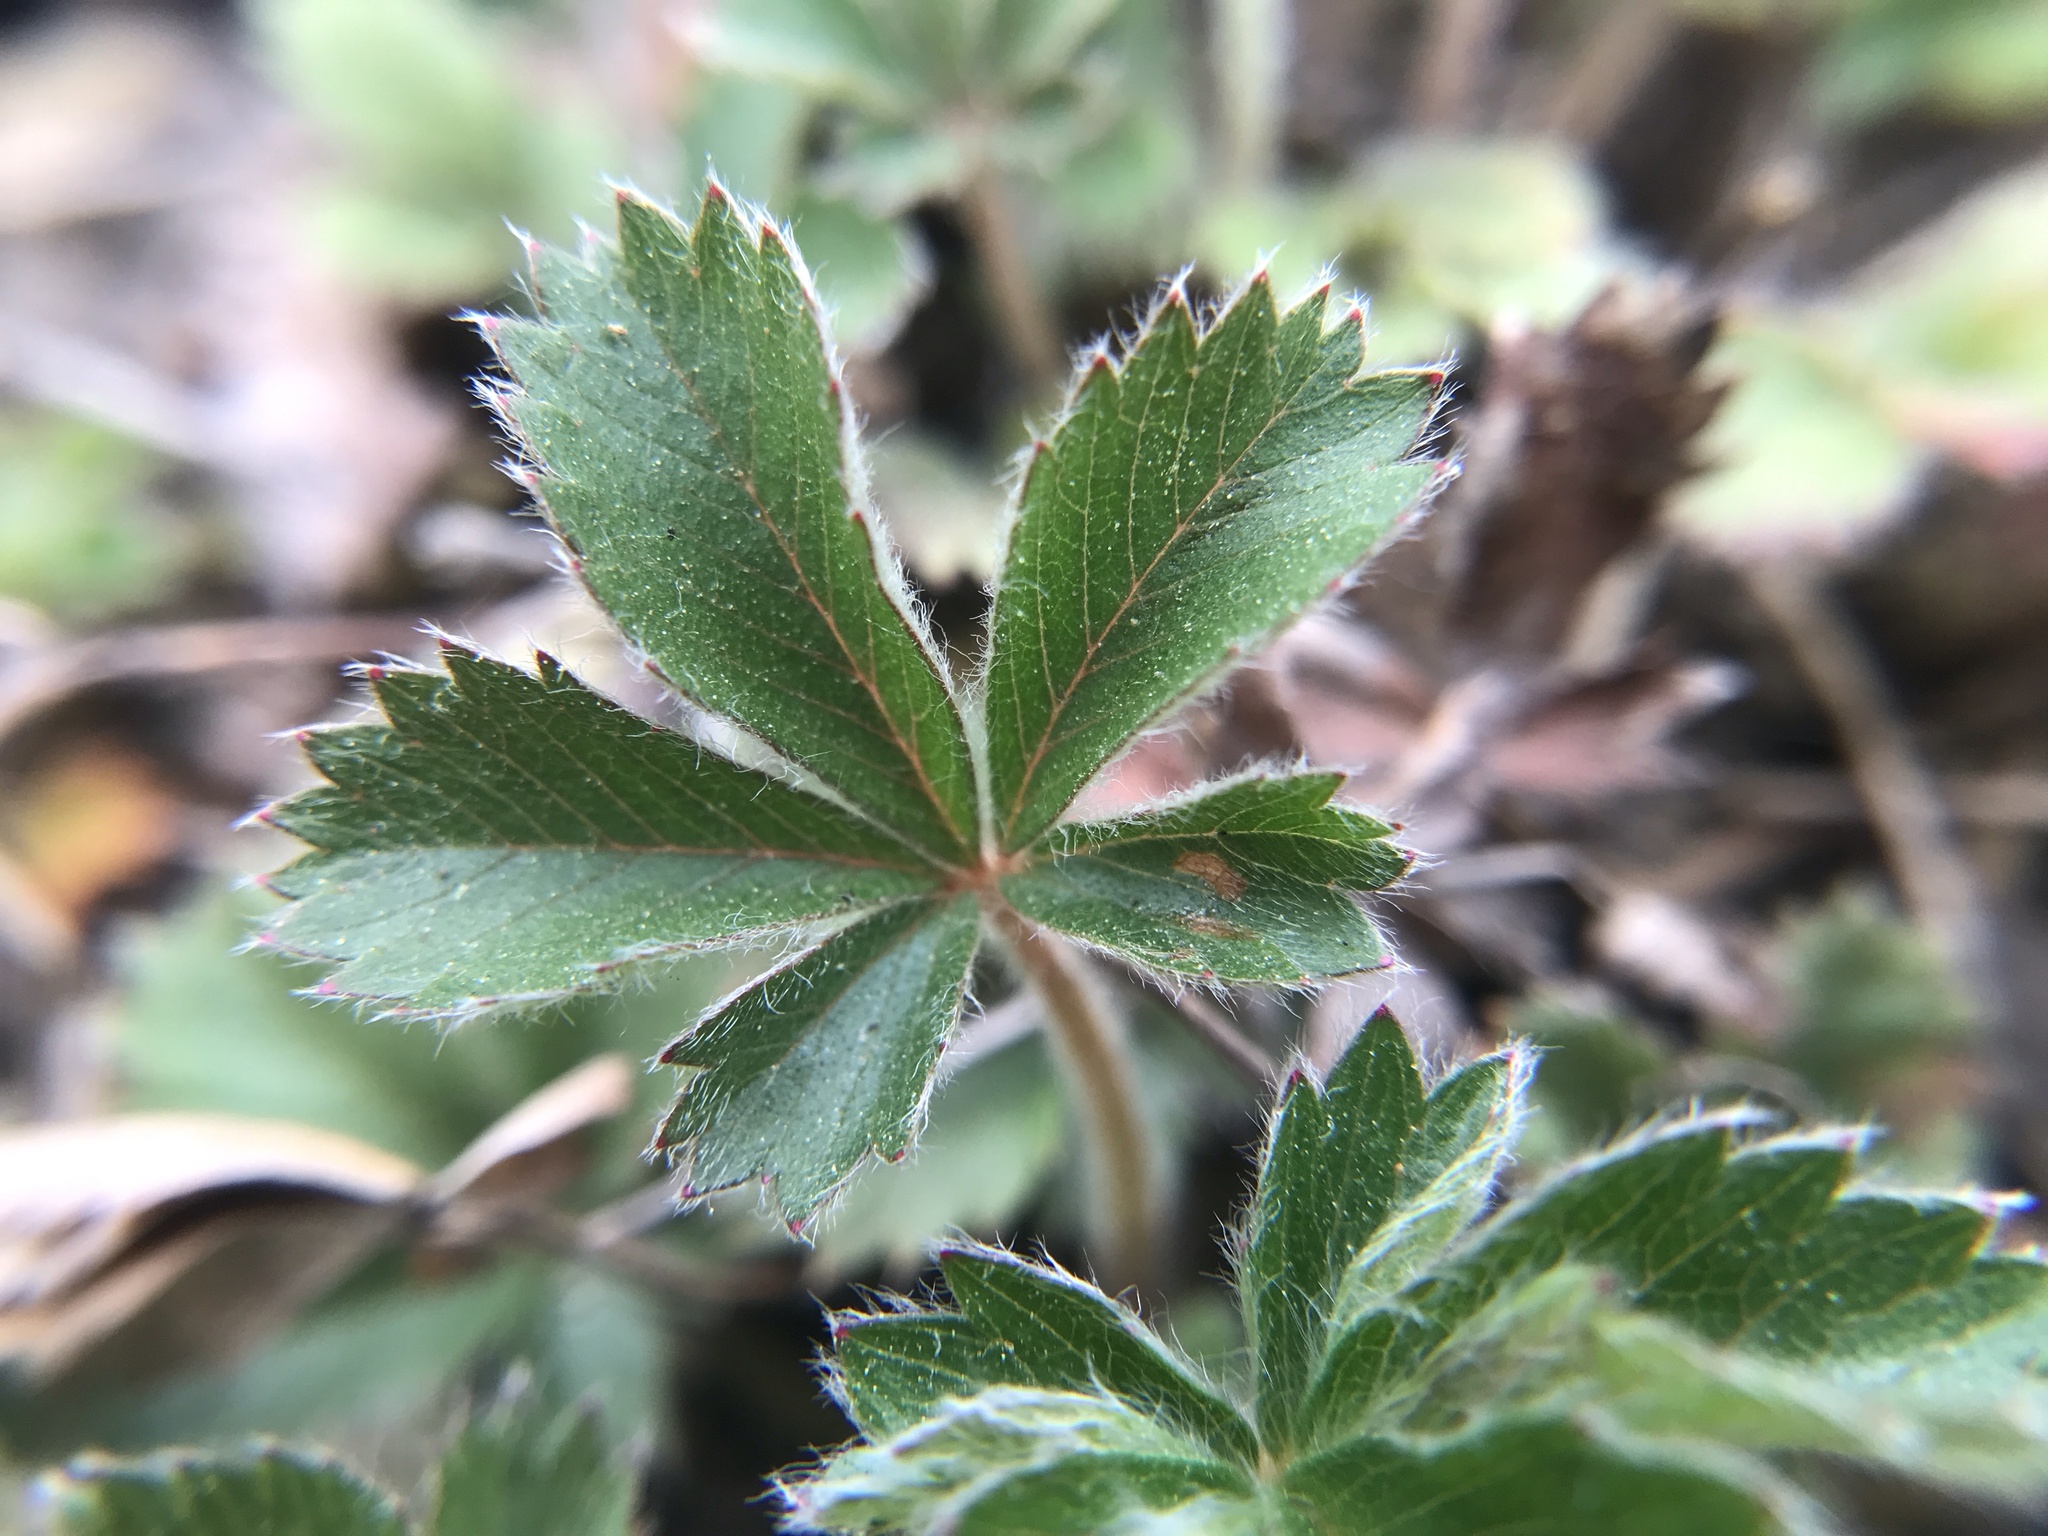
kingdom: Plantae
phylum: Tracheophyta
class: Magnoliopsida
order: Rosales
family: Rosaceae
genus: Potentilla
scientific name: Potentilla canadensis
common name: Canada cinquefoil
